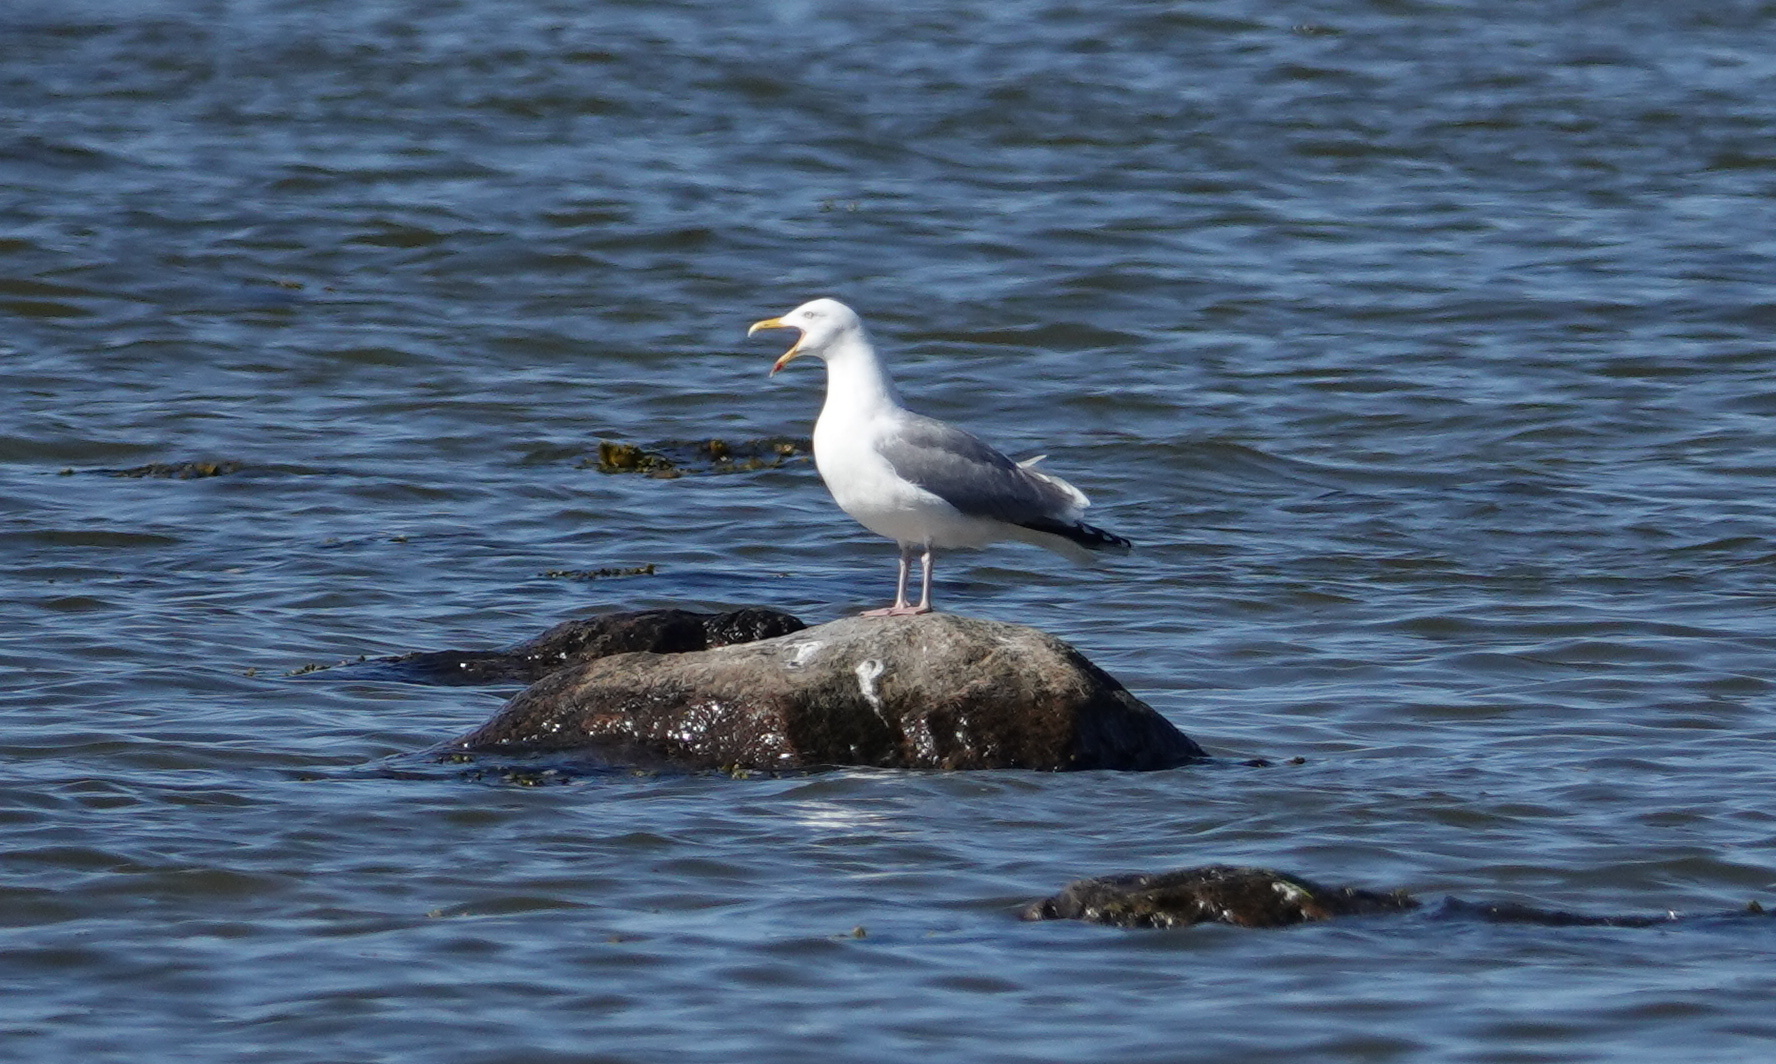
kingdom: Animalia
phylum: Chordata
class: Aves
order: Charadriiformes
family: Laridae
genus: Larus
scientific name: Larus argentatus
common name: Herring gull
